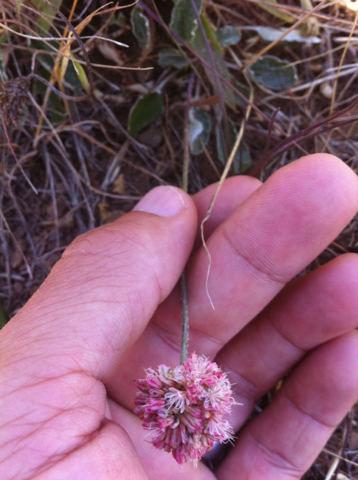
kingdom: Plantae
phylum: Tracheophyta
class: Magnoliopsida
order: Caryophyllales
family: Polygonaceae
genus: Eriogonum
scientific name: Eriogonum latifolium
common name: Seaside wild buckwheat
